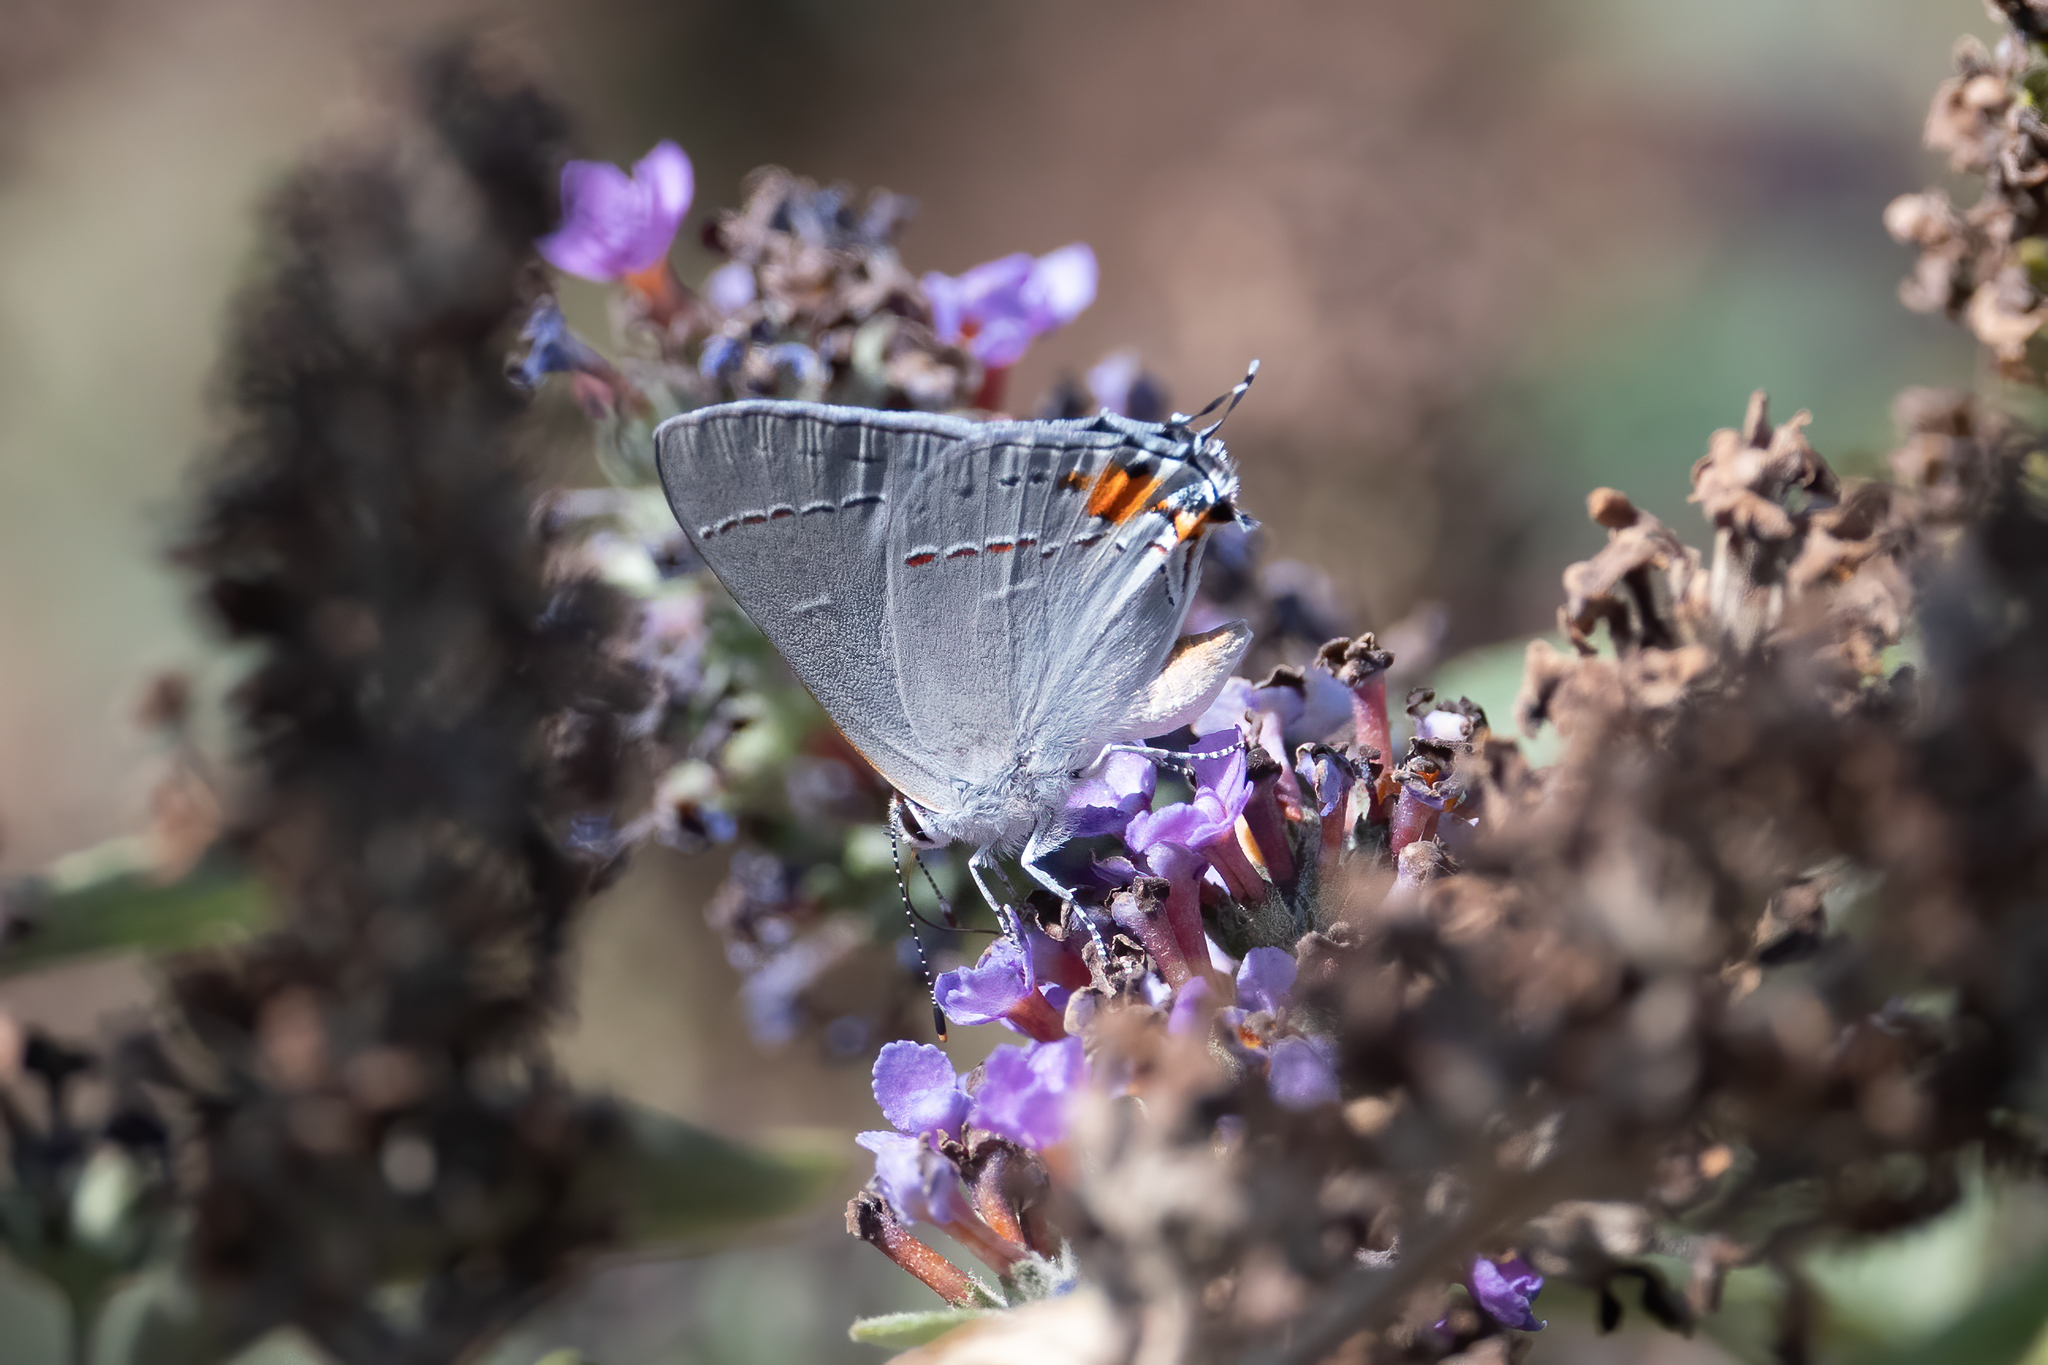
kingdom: Animalia
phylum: Arthropoda
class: Insecta
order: Lepidoptera
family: Lycaenidae
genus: Strymon
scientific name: Strymon melinus
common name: Gray hairstreak
